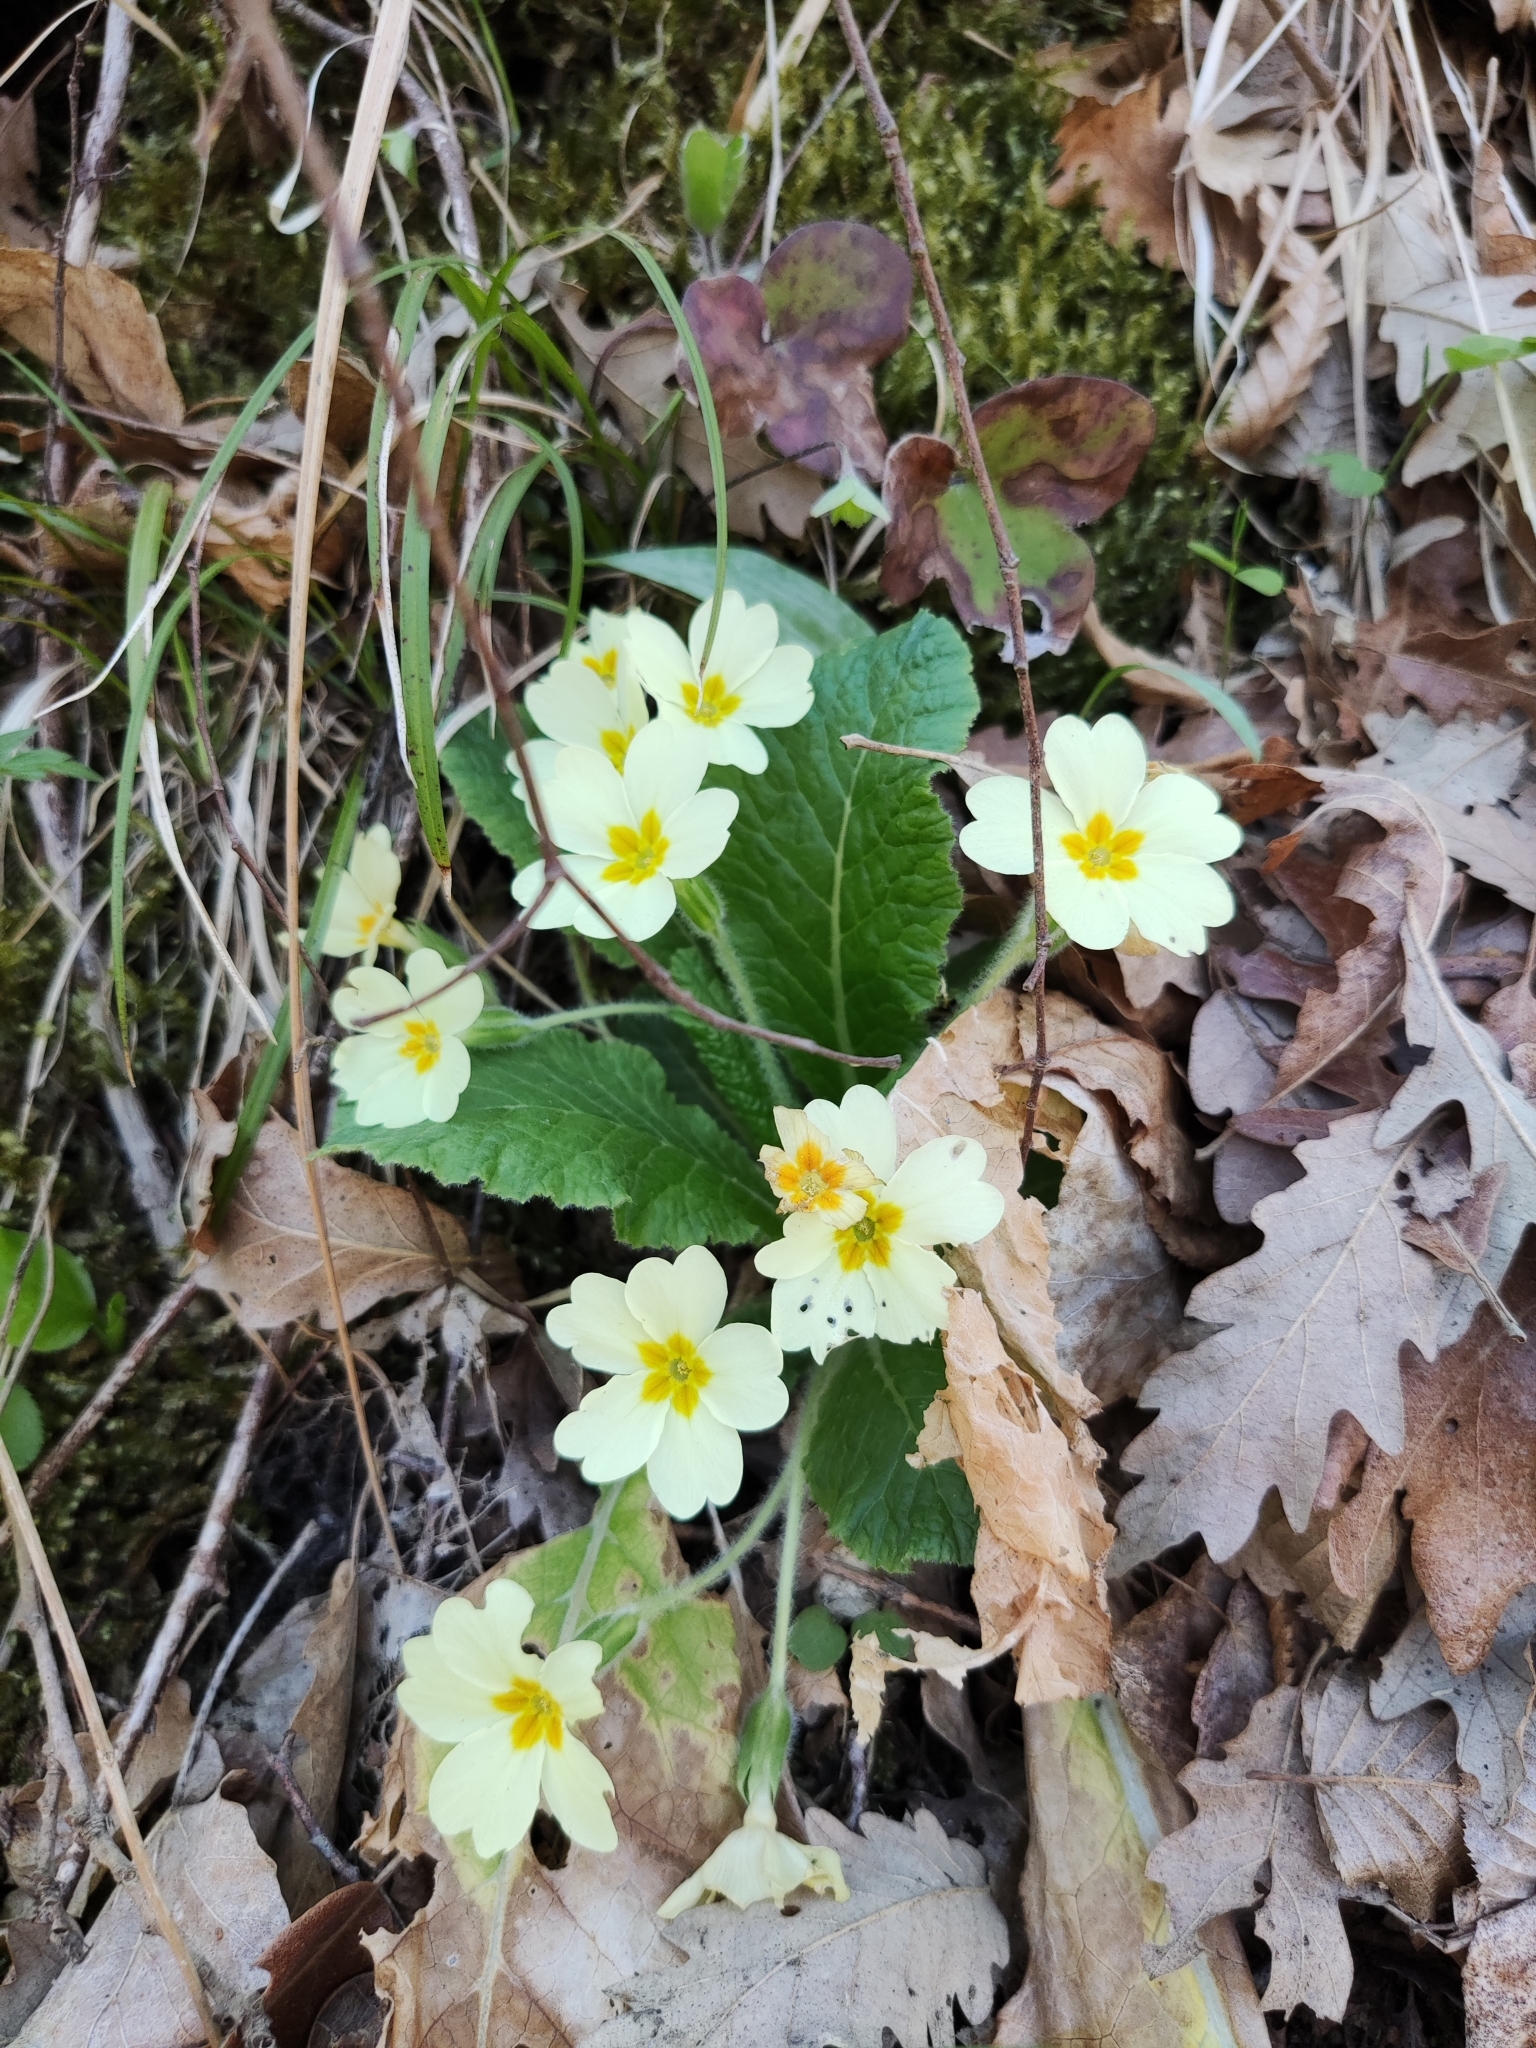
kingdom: Plantae
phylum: Tracheophyta
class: Magnoliopsida
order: Ericales
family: Primulaceae
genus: Primula
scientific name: Primula vulgaris
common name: Primrose
